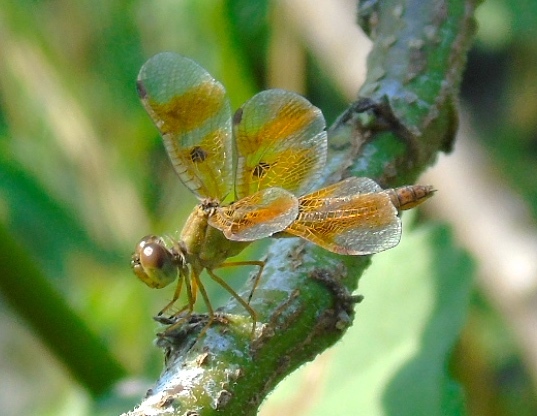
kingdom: Animalia
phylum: Arthropoda
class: Insecta
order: Odonata
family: Libellulidae
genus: Perithemis
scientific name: Perithemis
